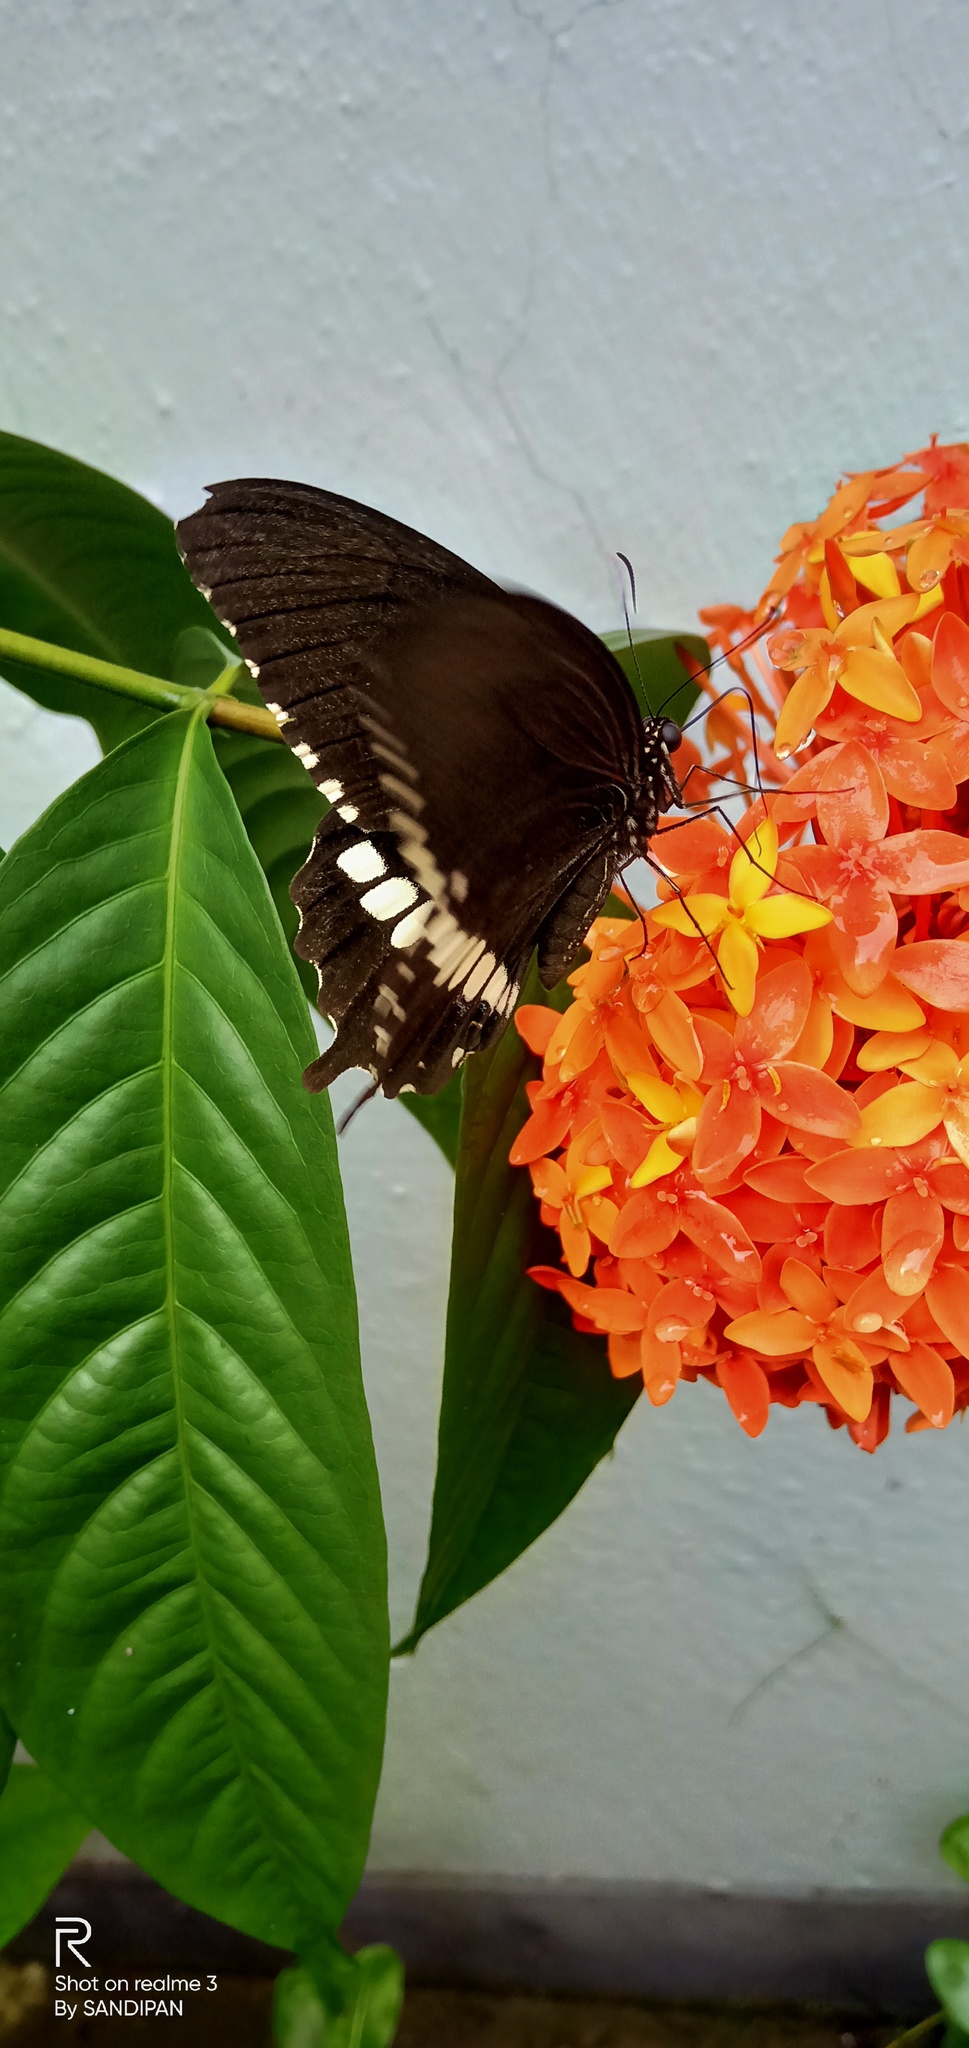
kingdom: Animalia
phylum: Arthropoda
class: Insecta
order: Lepidoptera
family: Papilionidae
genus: Papilio
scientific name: Papilio polytes
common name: Common mormon
